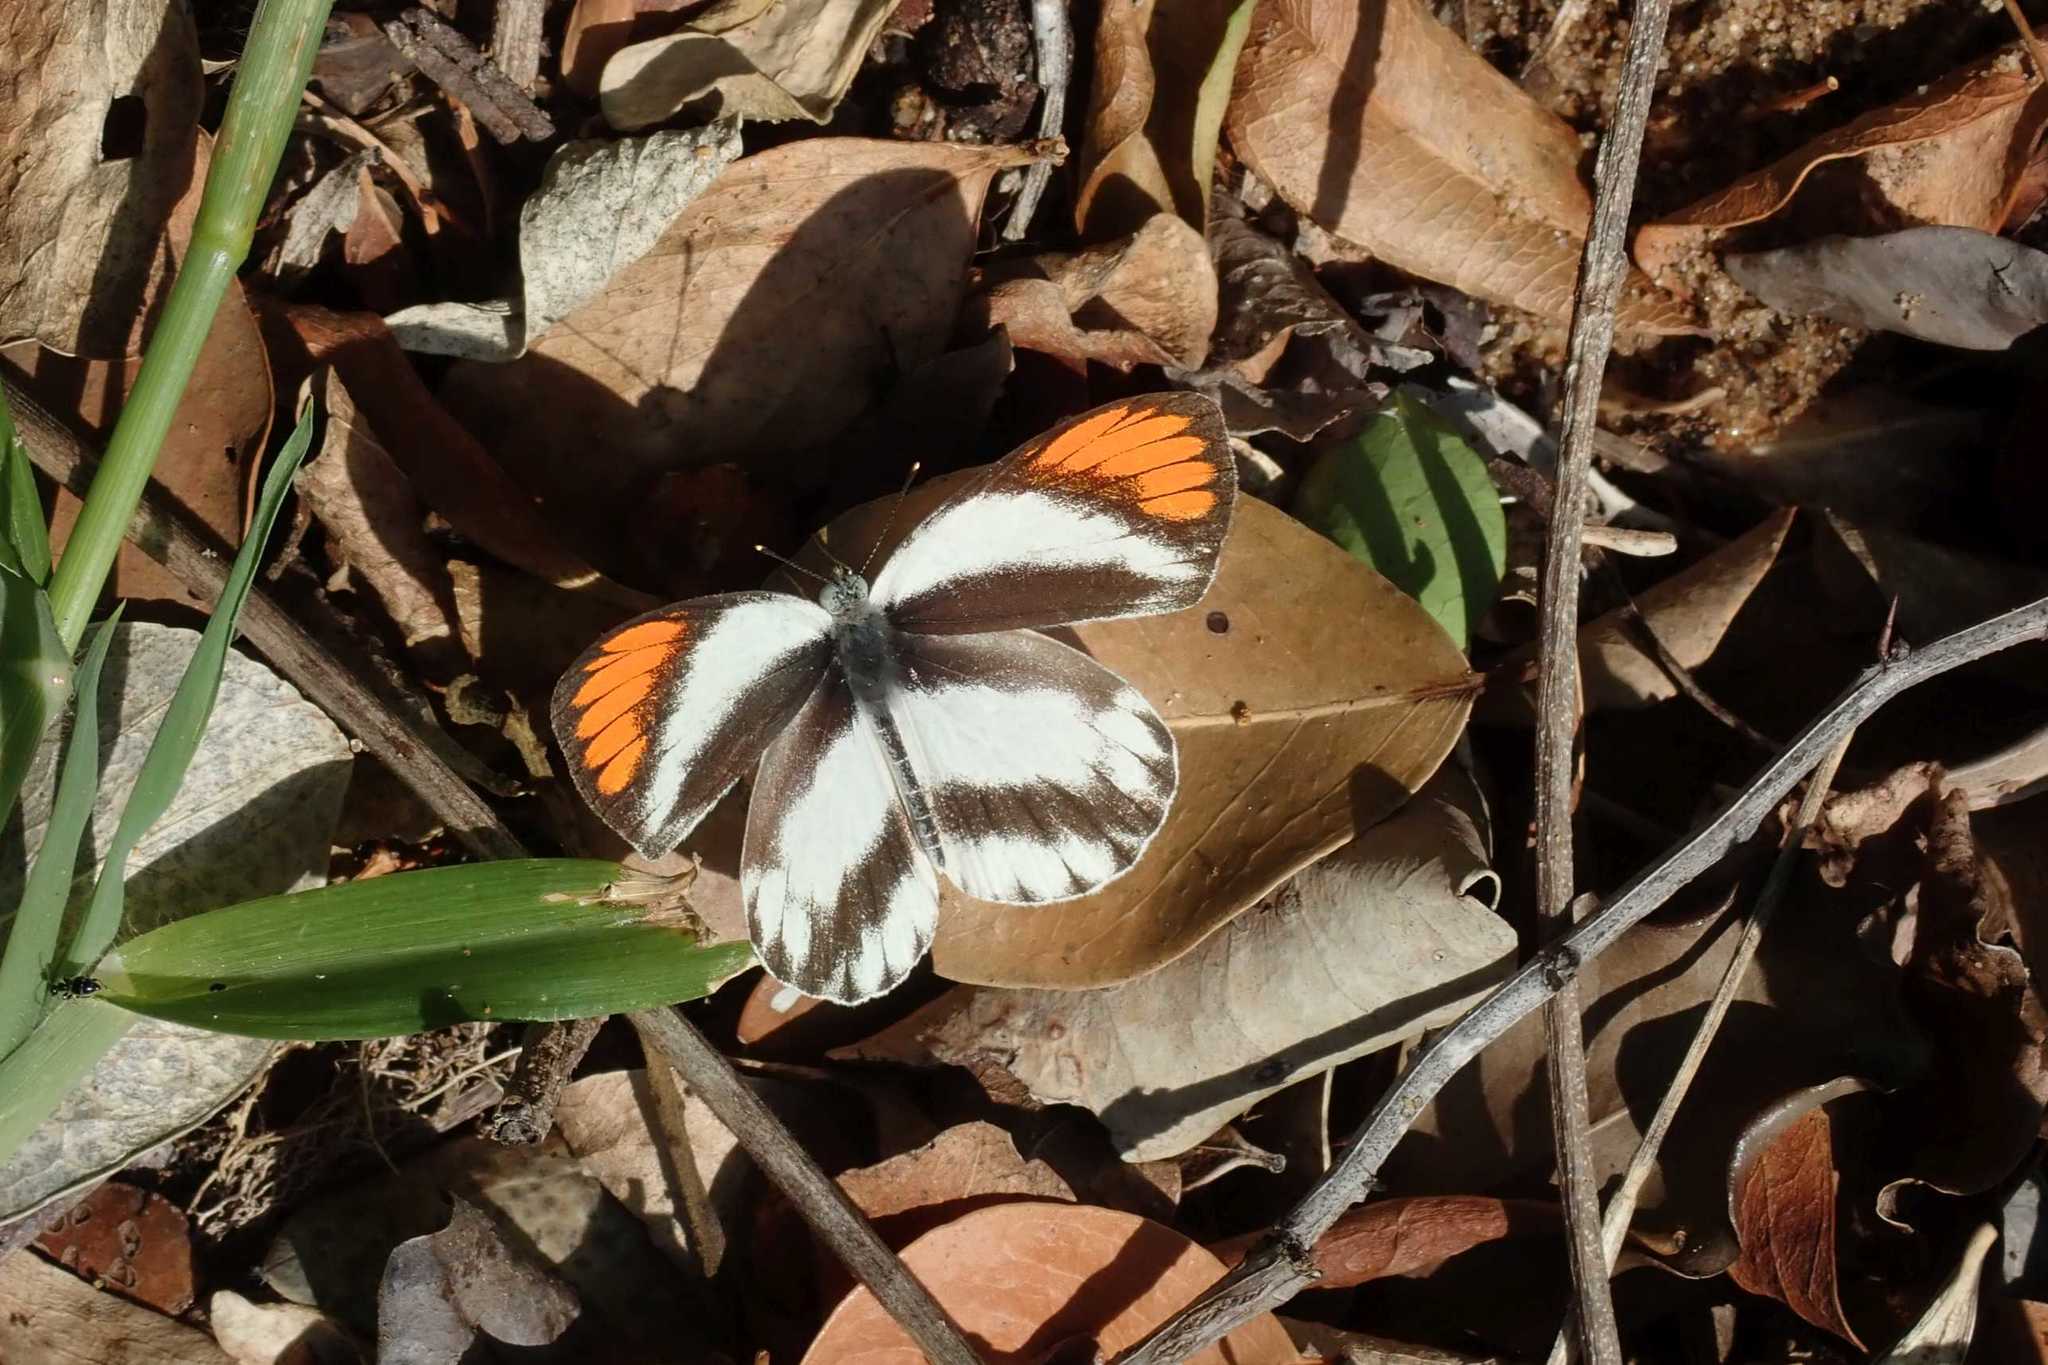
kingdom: Animalia
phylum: Arthropoda
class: Insecta
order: Lepidoptera
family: Pieridae
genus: Colotis
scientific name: Colotis euippe
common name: Round-winged orange tip
